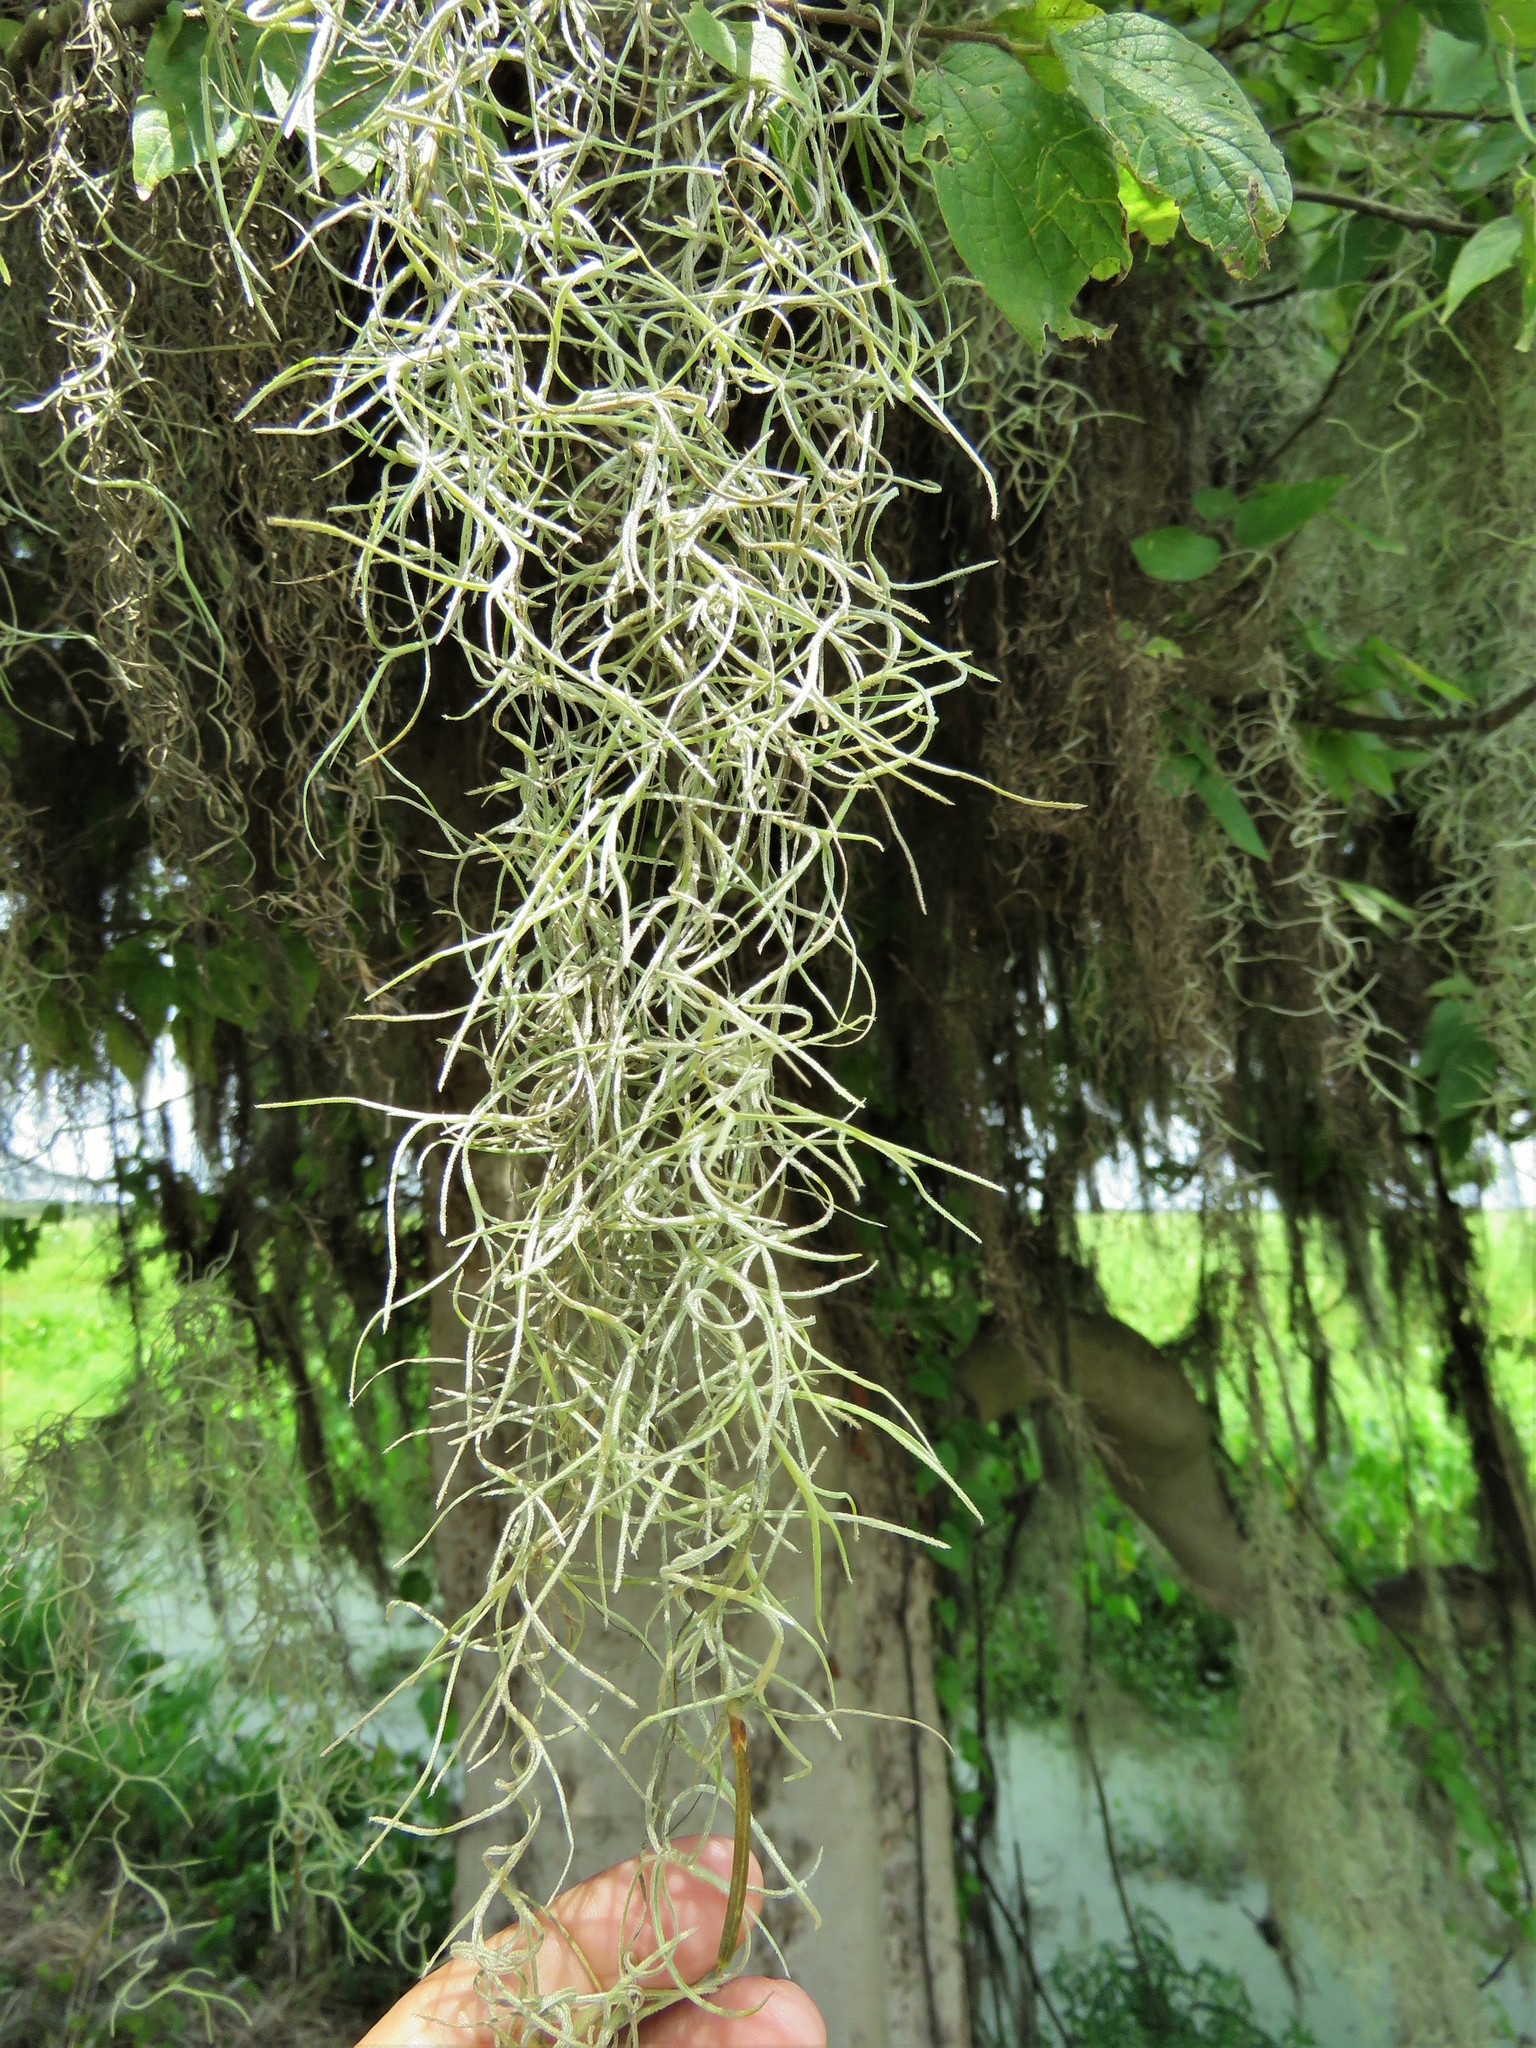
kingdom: Plantae
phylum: Tracheophyta
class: Liliopsida
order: Poales
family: Bromeliaceae
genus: Tillandsia
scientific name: Tillandsia usneoides
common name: Spanish moss
